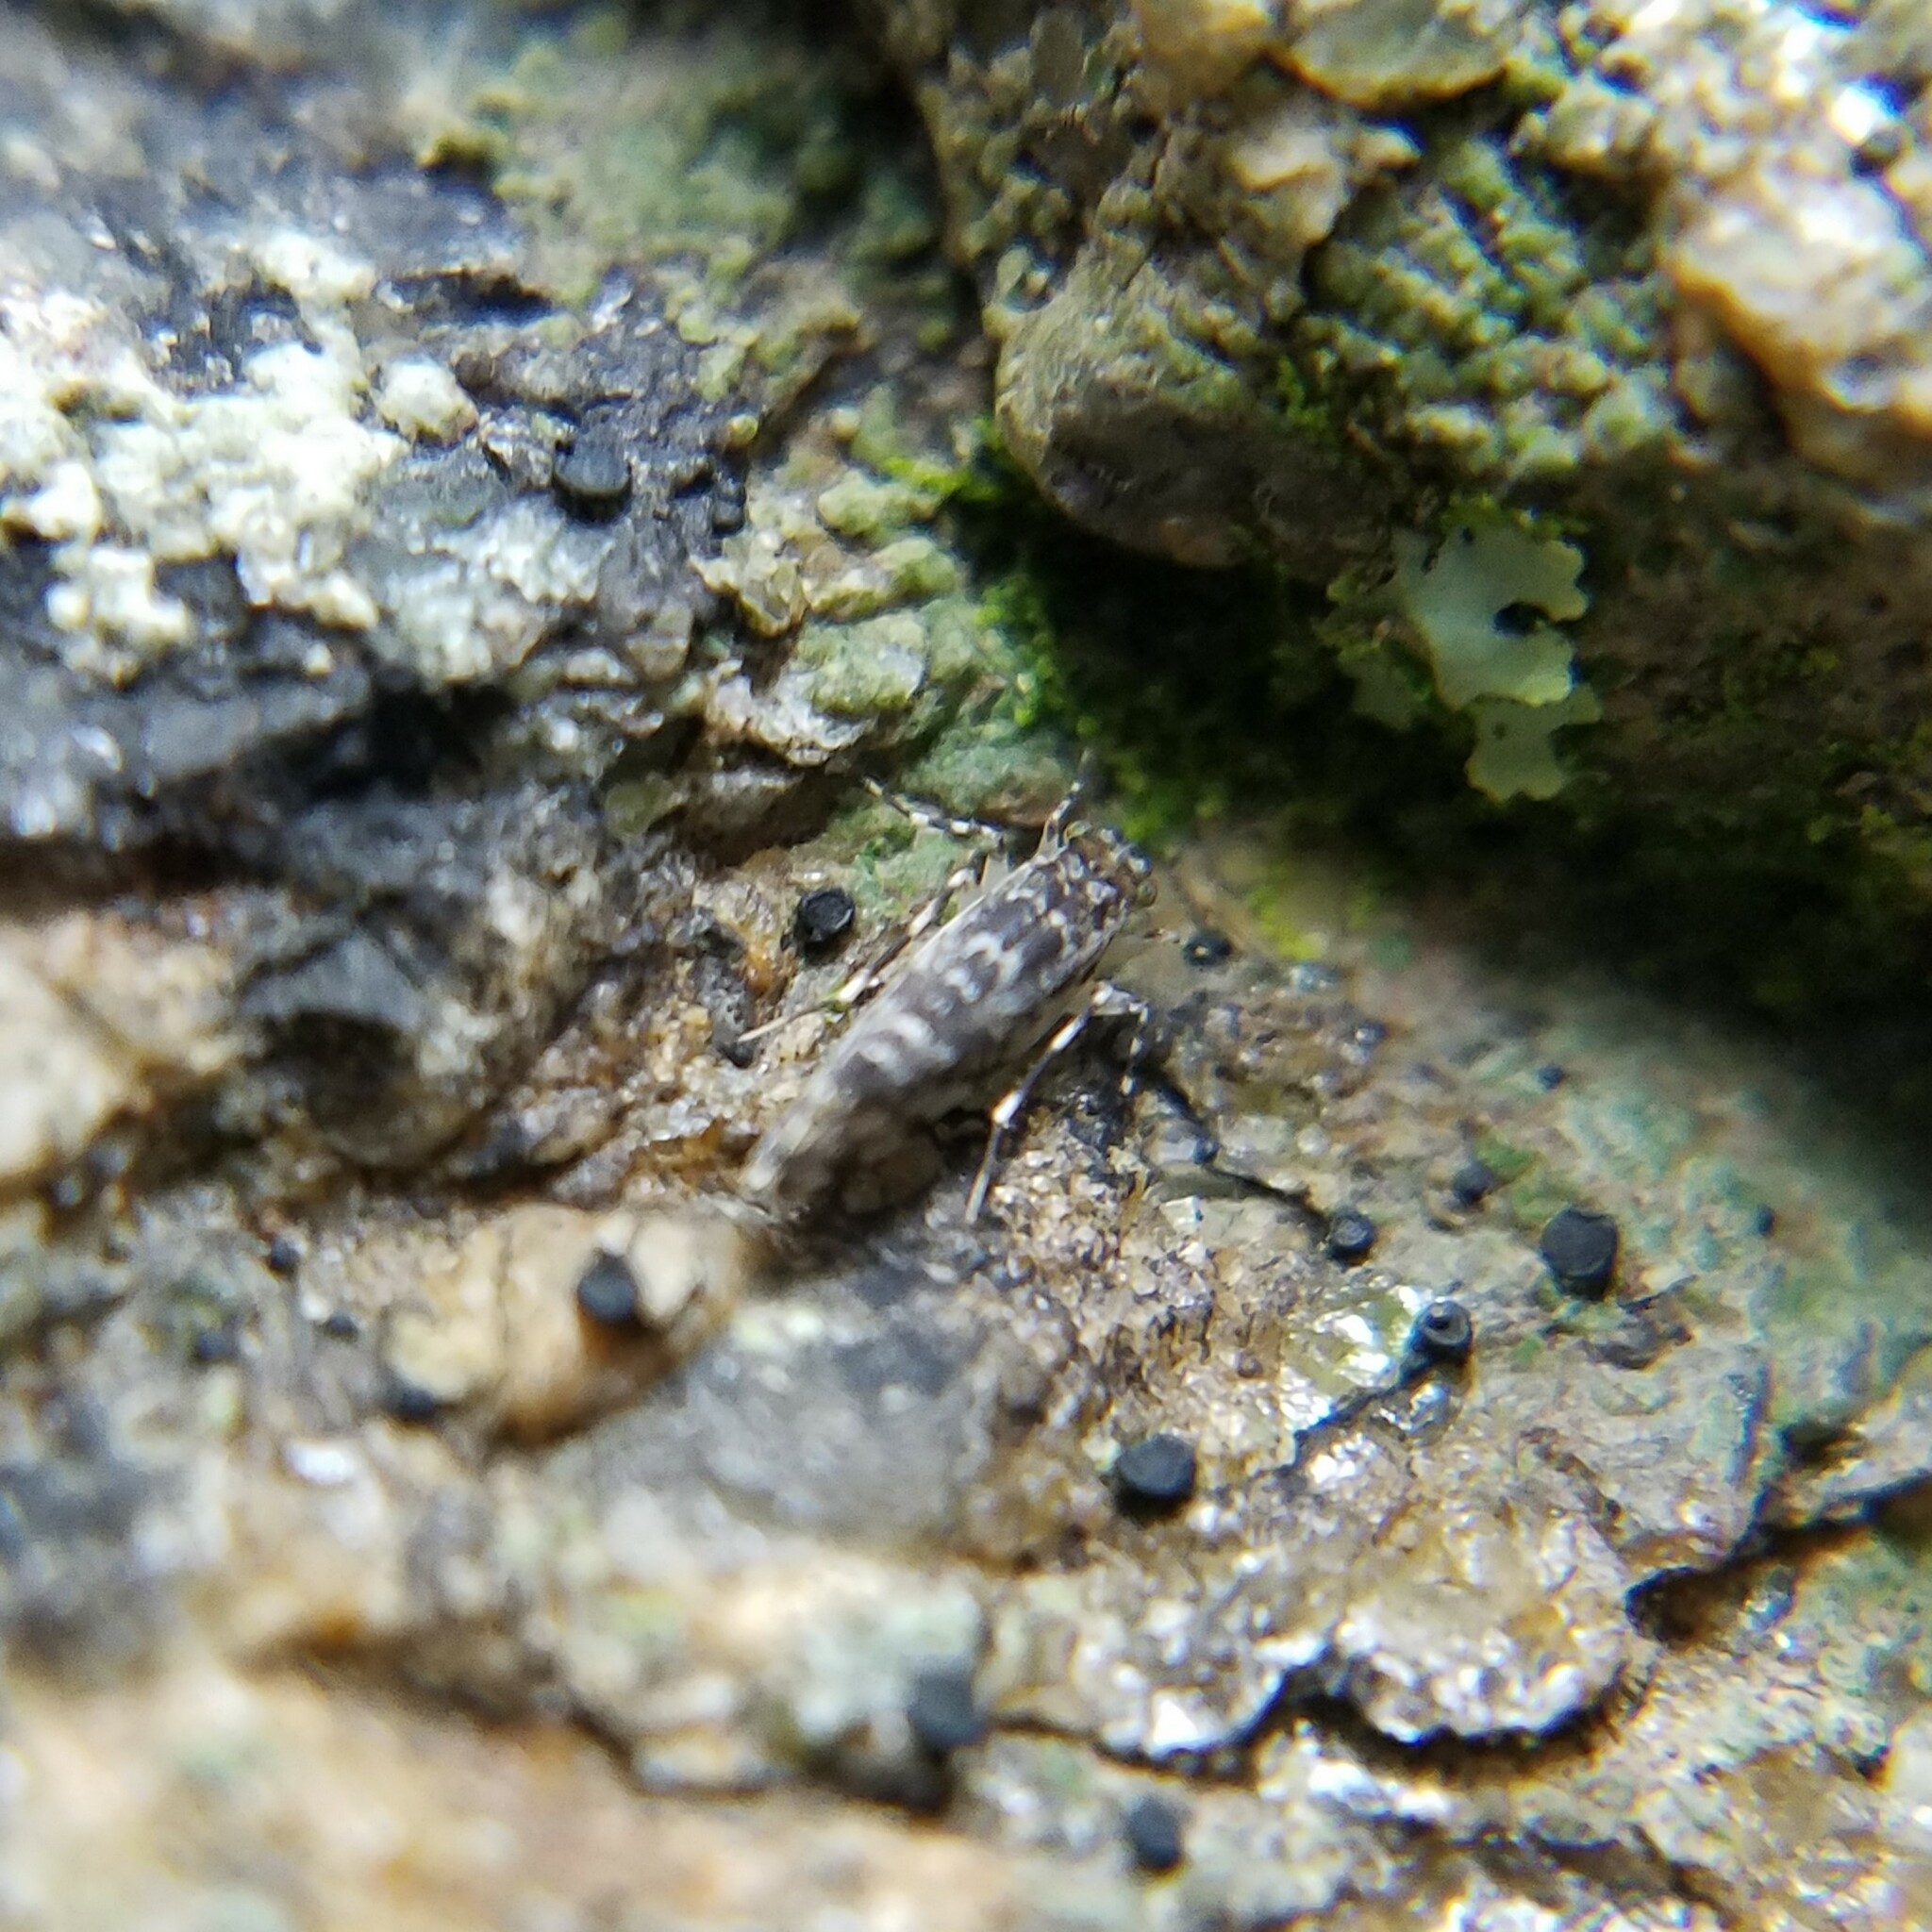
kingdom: Animalia
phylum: Arthropoda
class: Insecta
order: Psocodea
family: Amphientomidae
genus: Stimulopalpus
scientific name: Stimulopalpus japonicus
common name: Tropical bark louse
